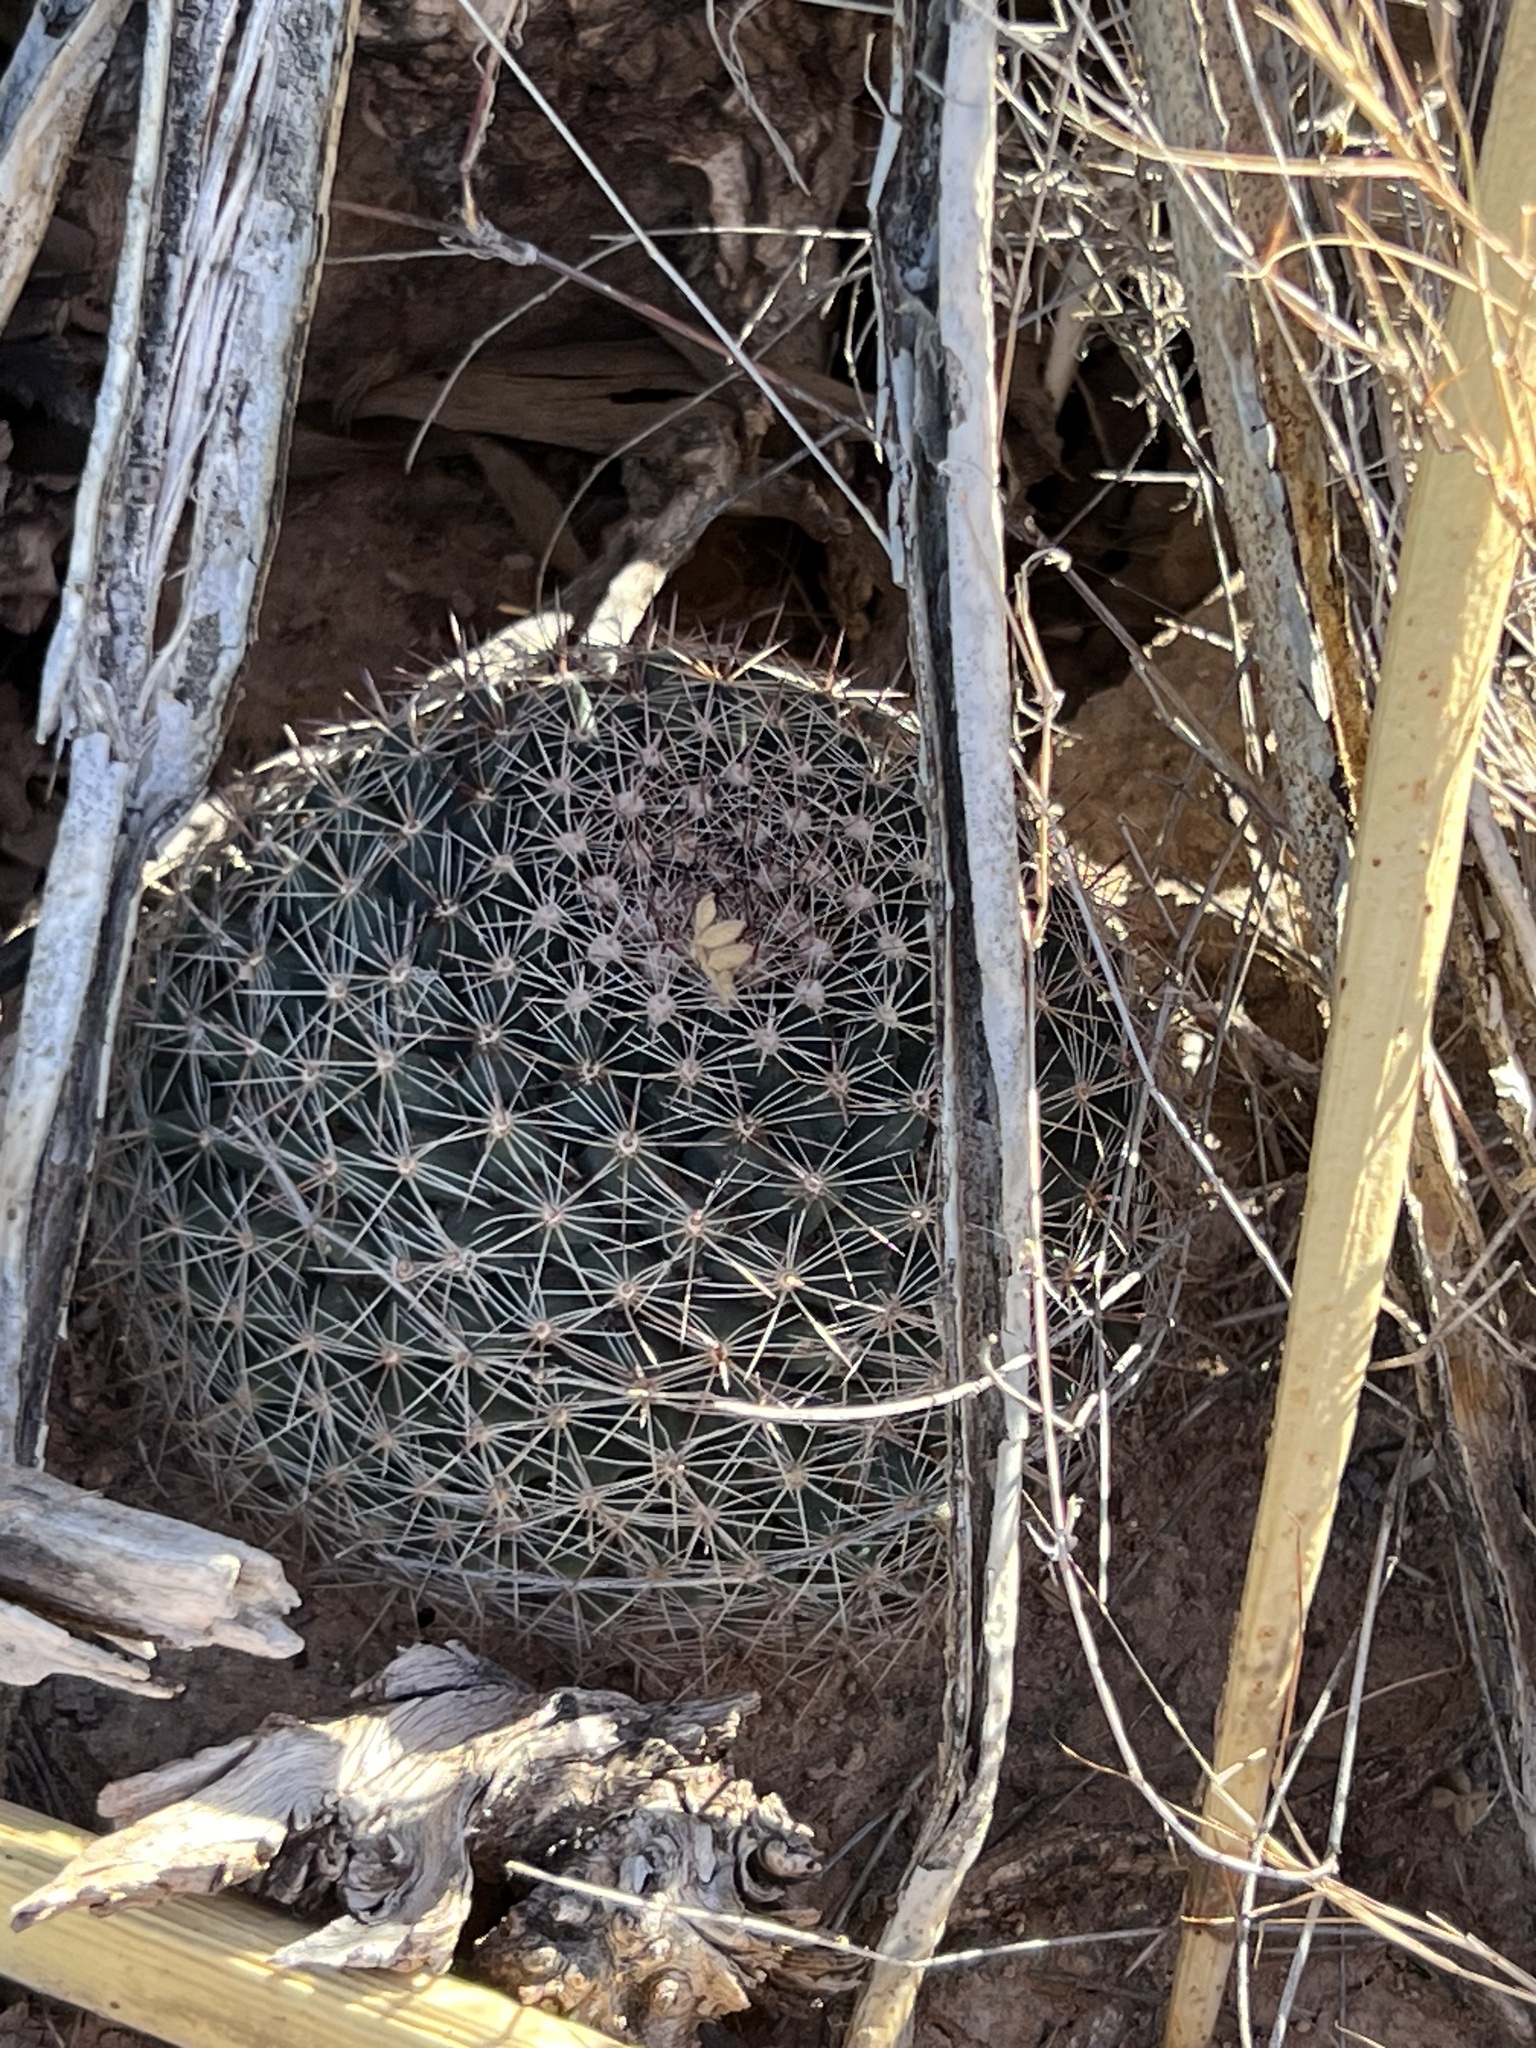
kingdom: Plantae
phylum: Tracheophyta
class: Magnoliopsida
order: Caryophyllales
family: Cactaceae
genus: Mammillaria
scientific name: Mammillaria heyderi
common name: Little nipple cactus
